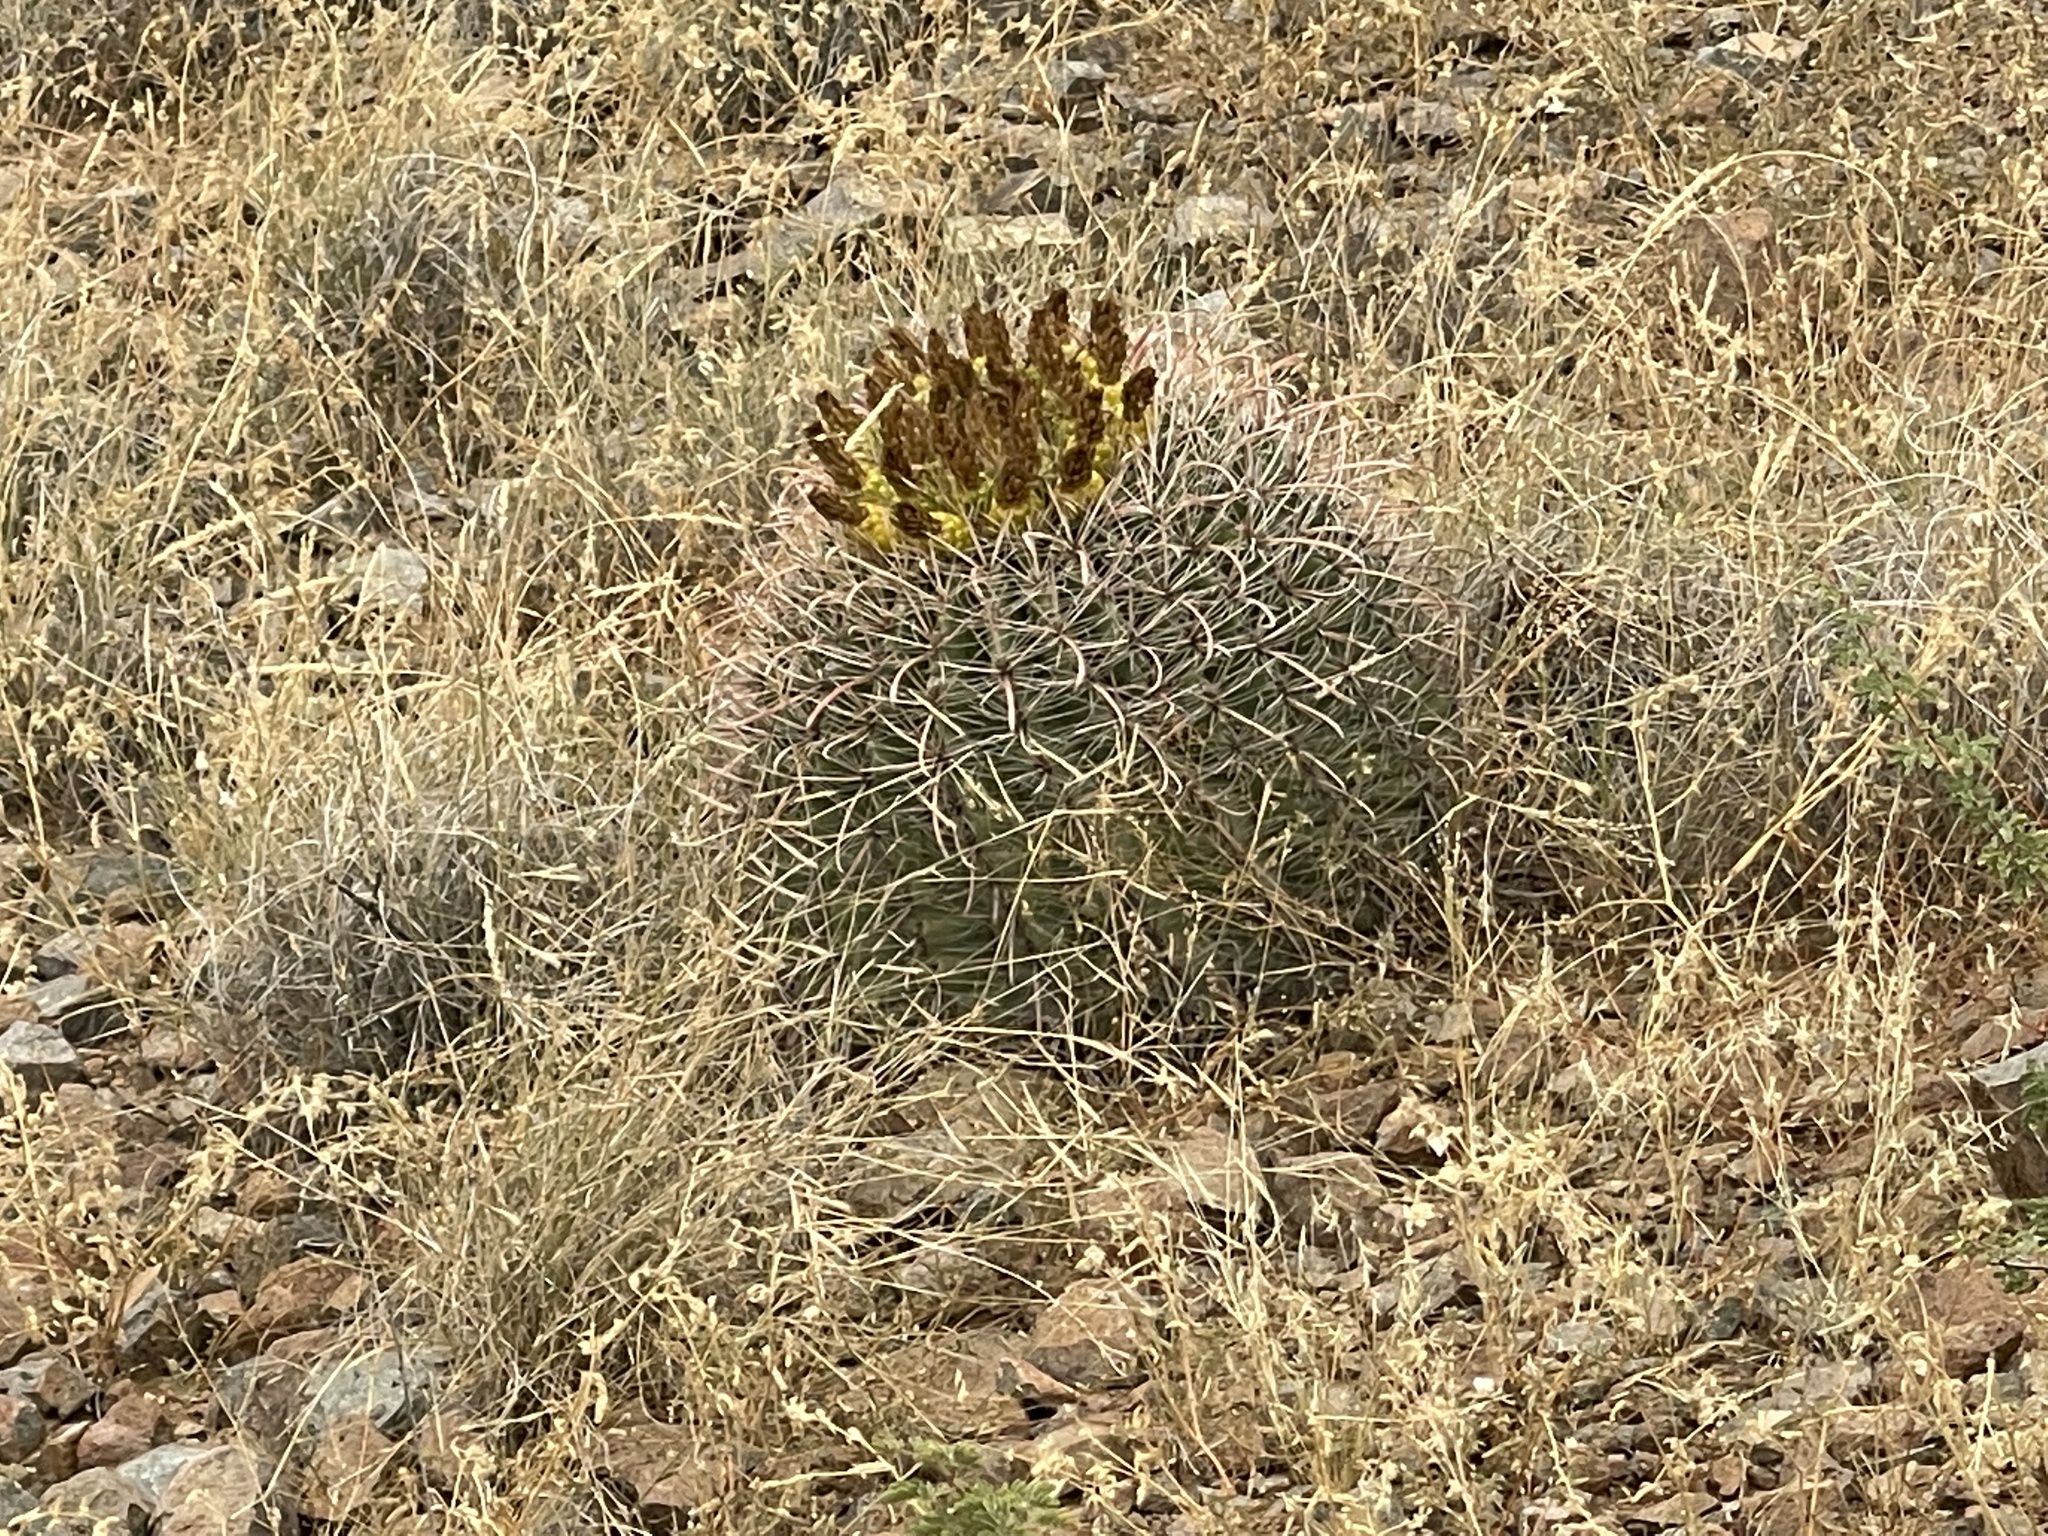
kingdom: Plantae
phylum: Tracheophyta
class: Magnoliopsida
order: Caryophyllales
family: Cactaceae
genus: Ferocactus
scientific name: Ferocactus wislizeni
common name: Candy barrel cactus
